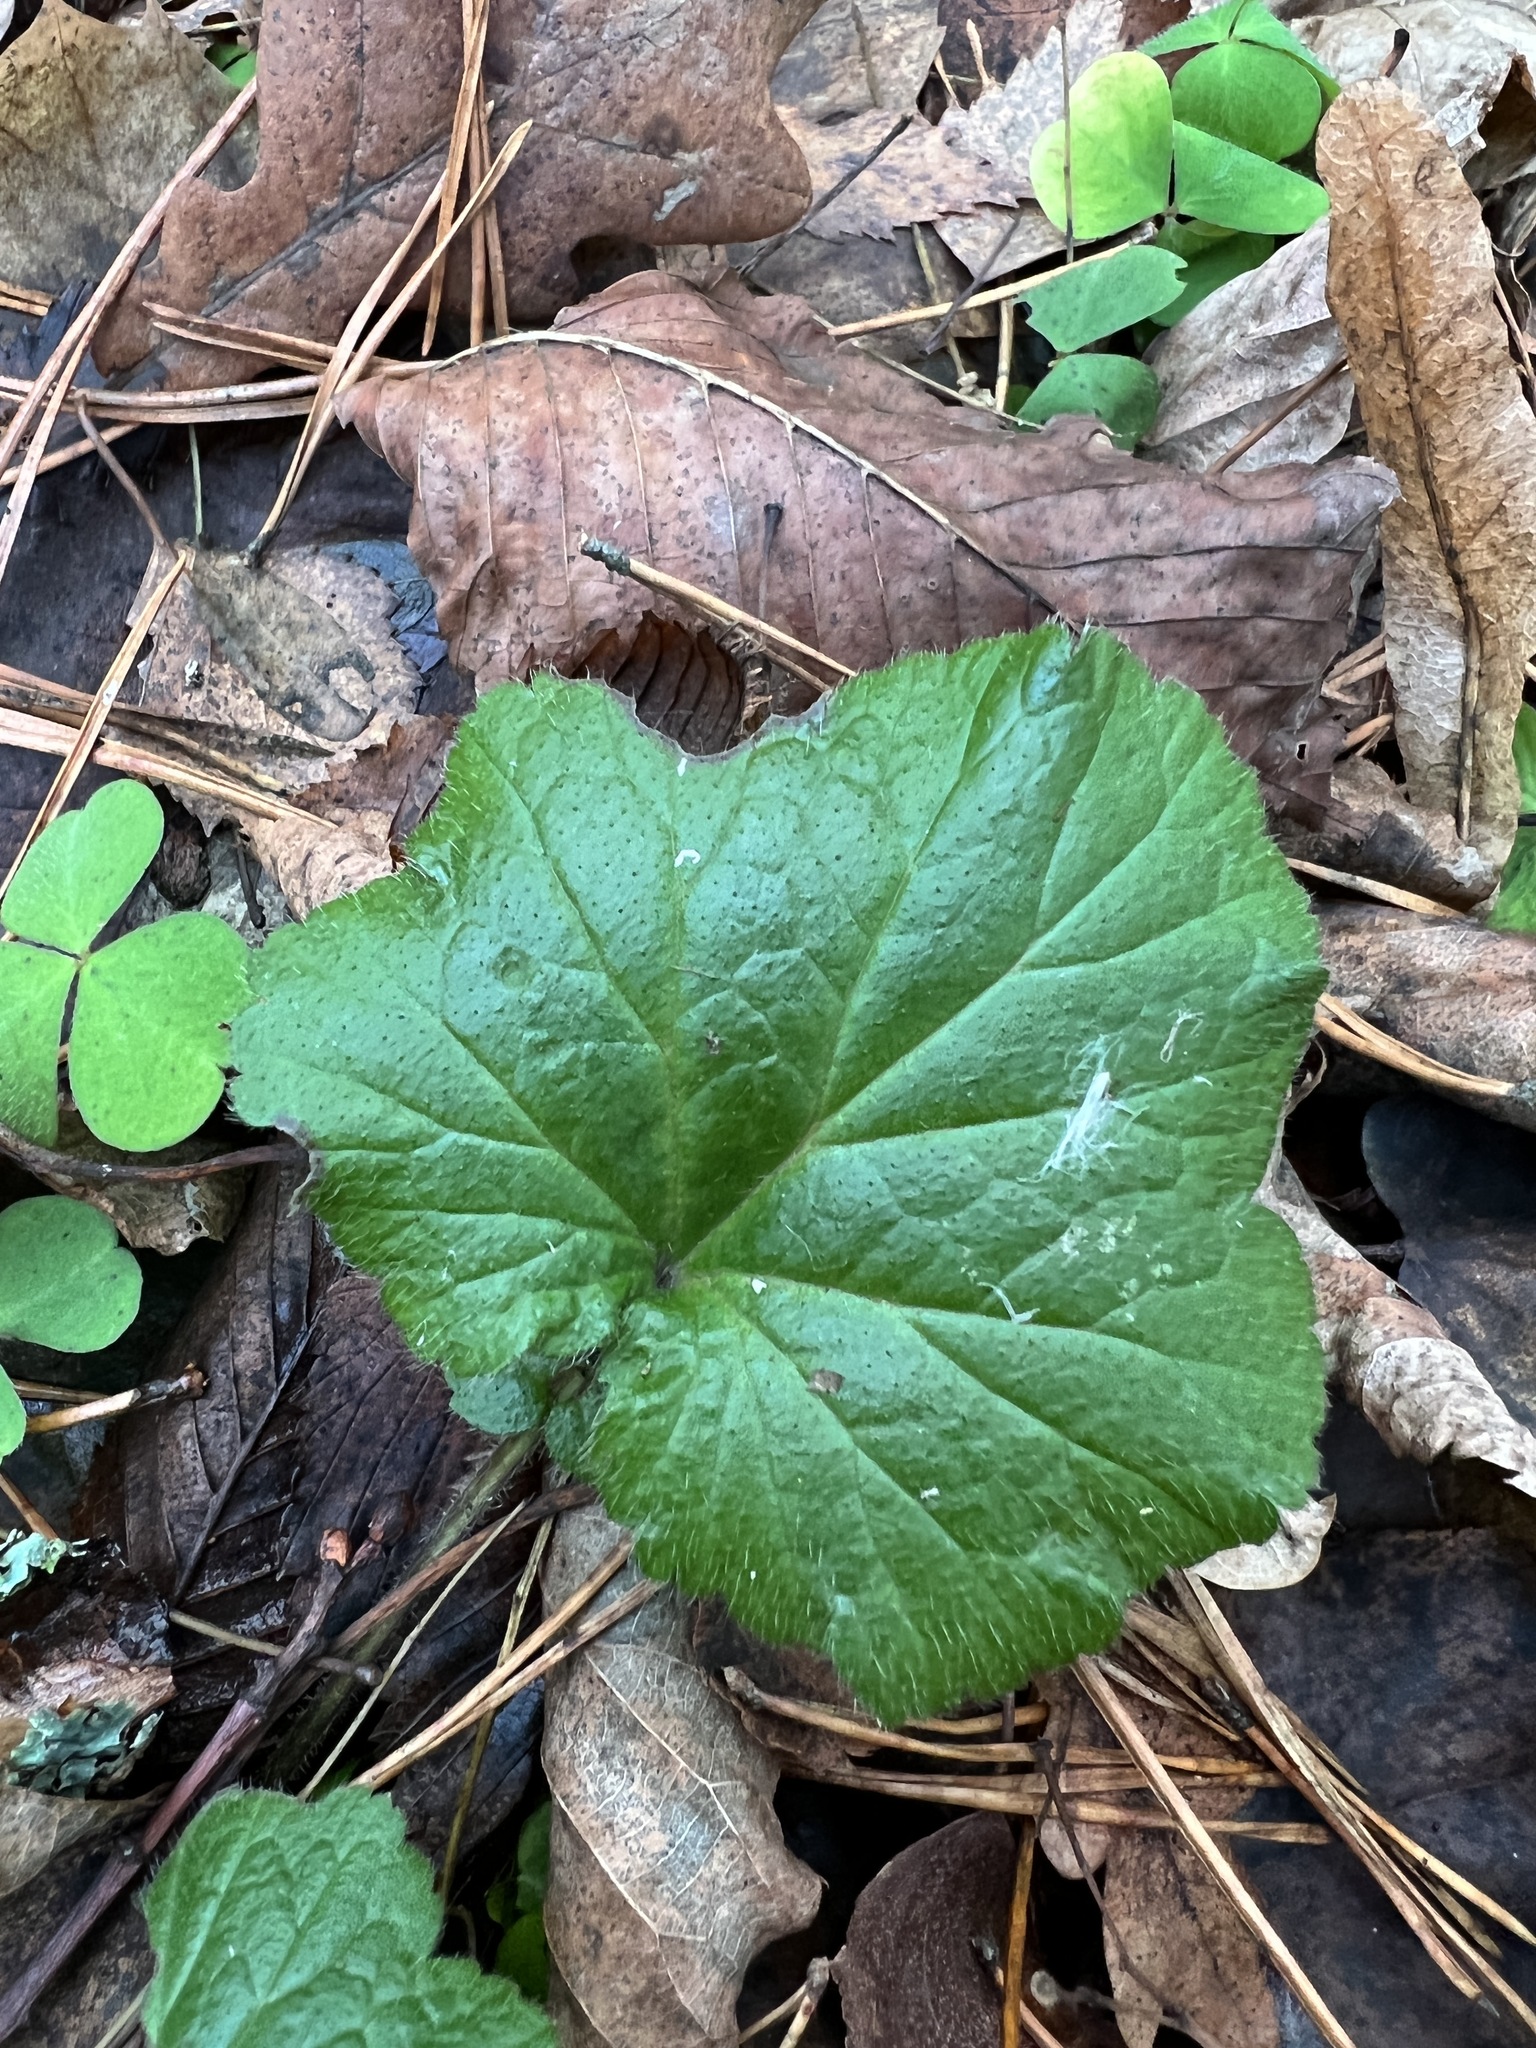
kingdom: Plantae
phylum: Tracheophyta
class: Magnoliopsida
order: Rosales
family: Rosaceae
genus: Geum
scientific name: Geum
